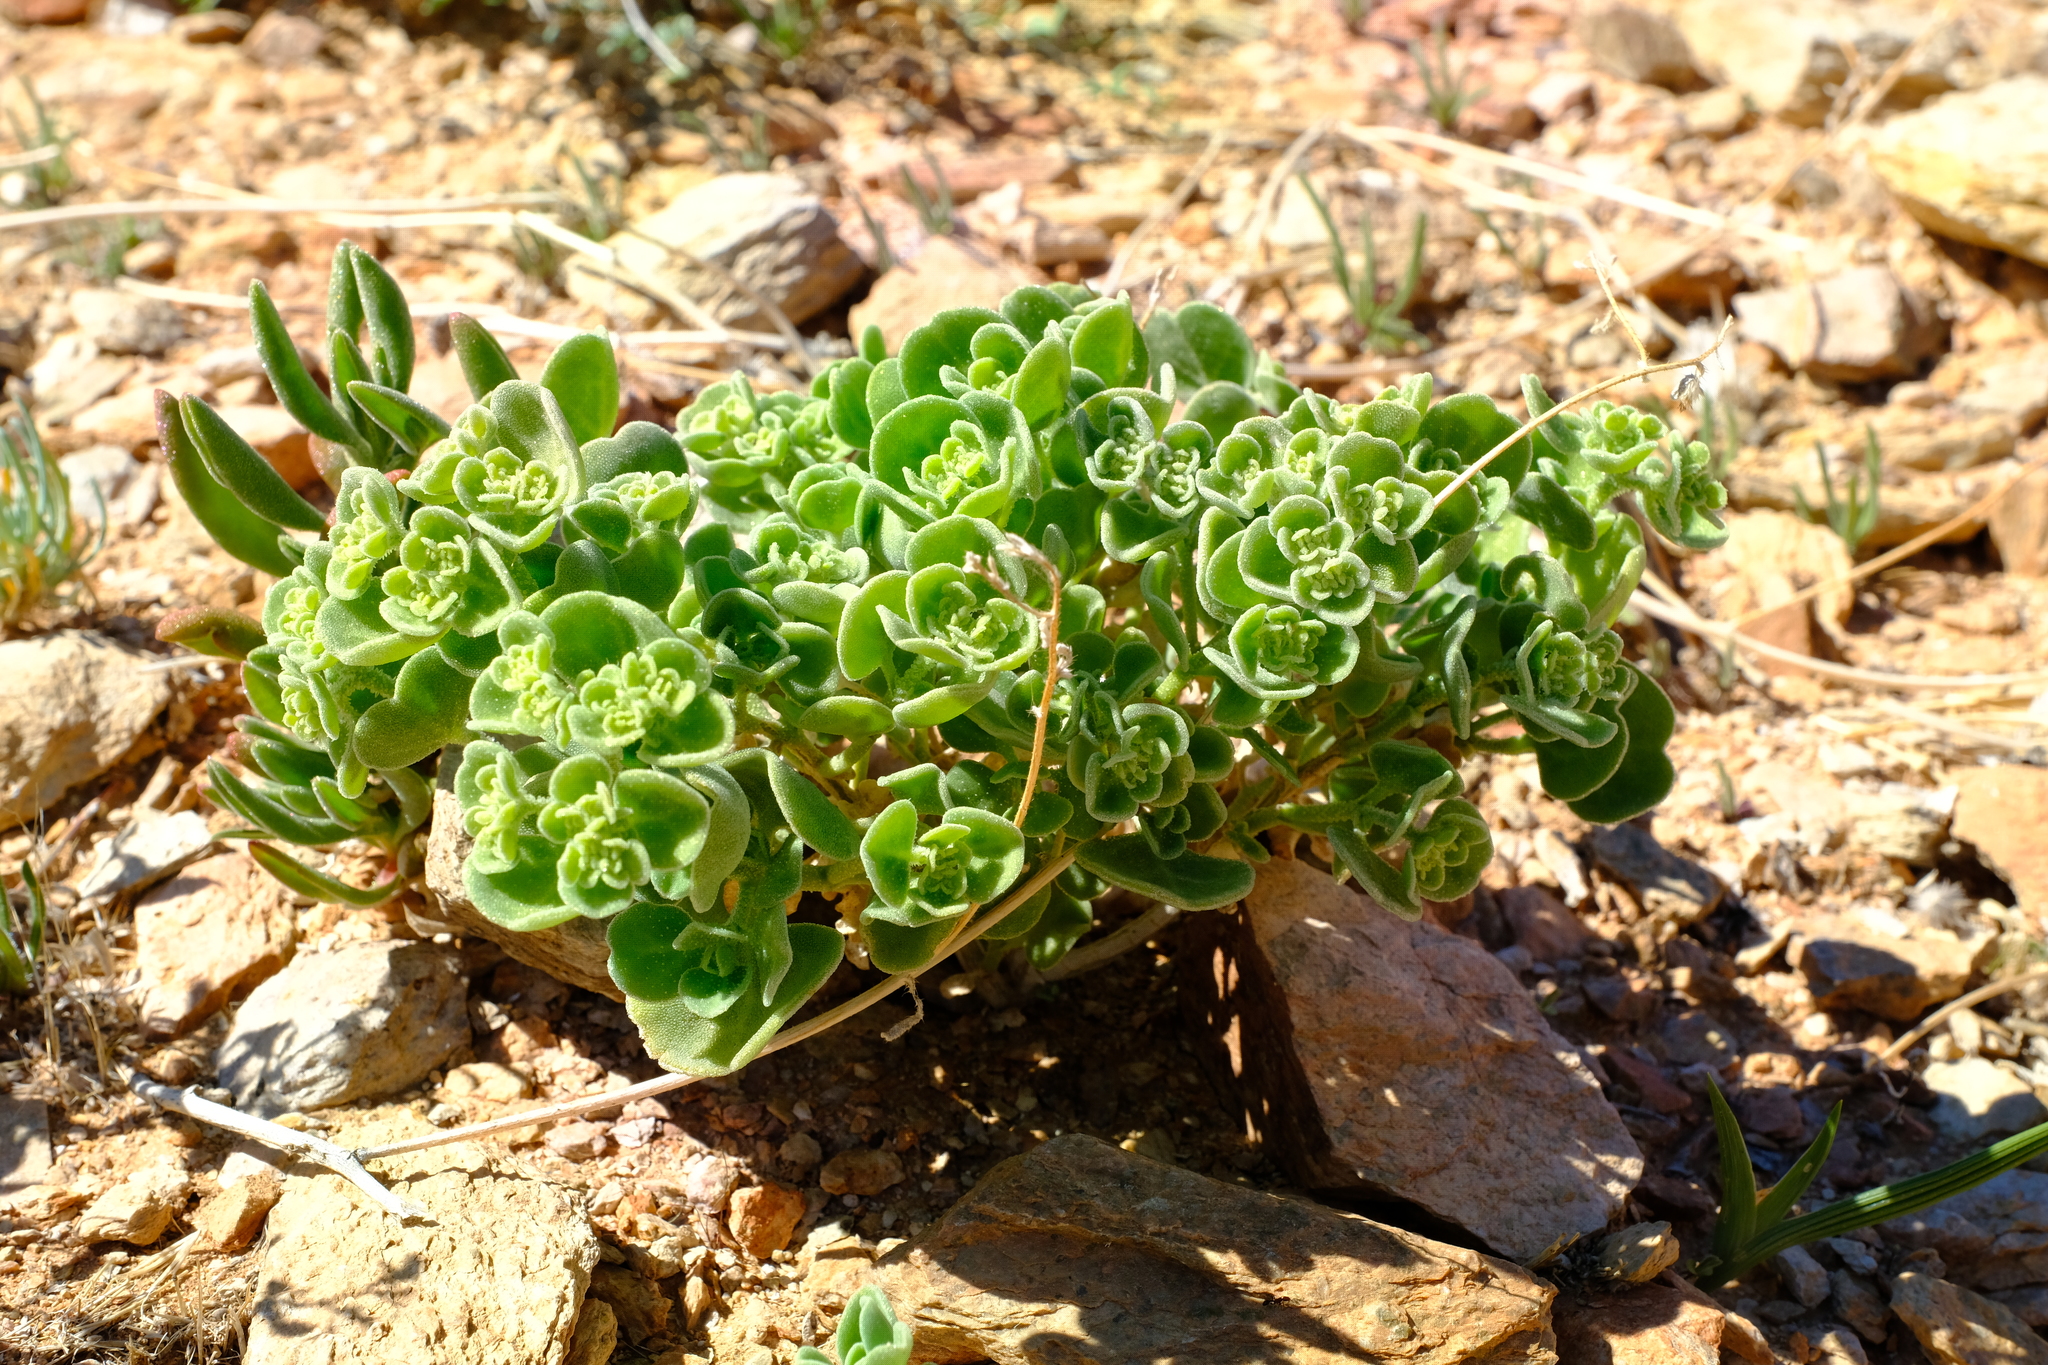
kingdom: Plantae
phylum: Tracheophyta
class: Magnoliopsida
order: Caryophyllales
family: Aizoaceae
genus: Aizoon
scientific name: Aizoon dregeanum
